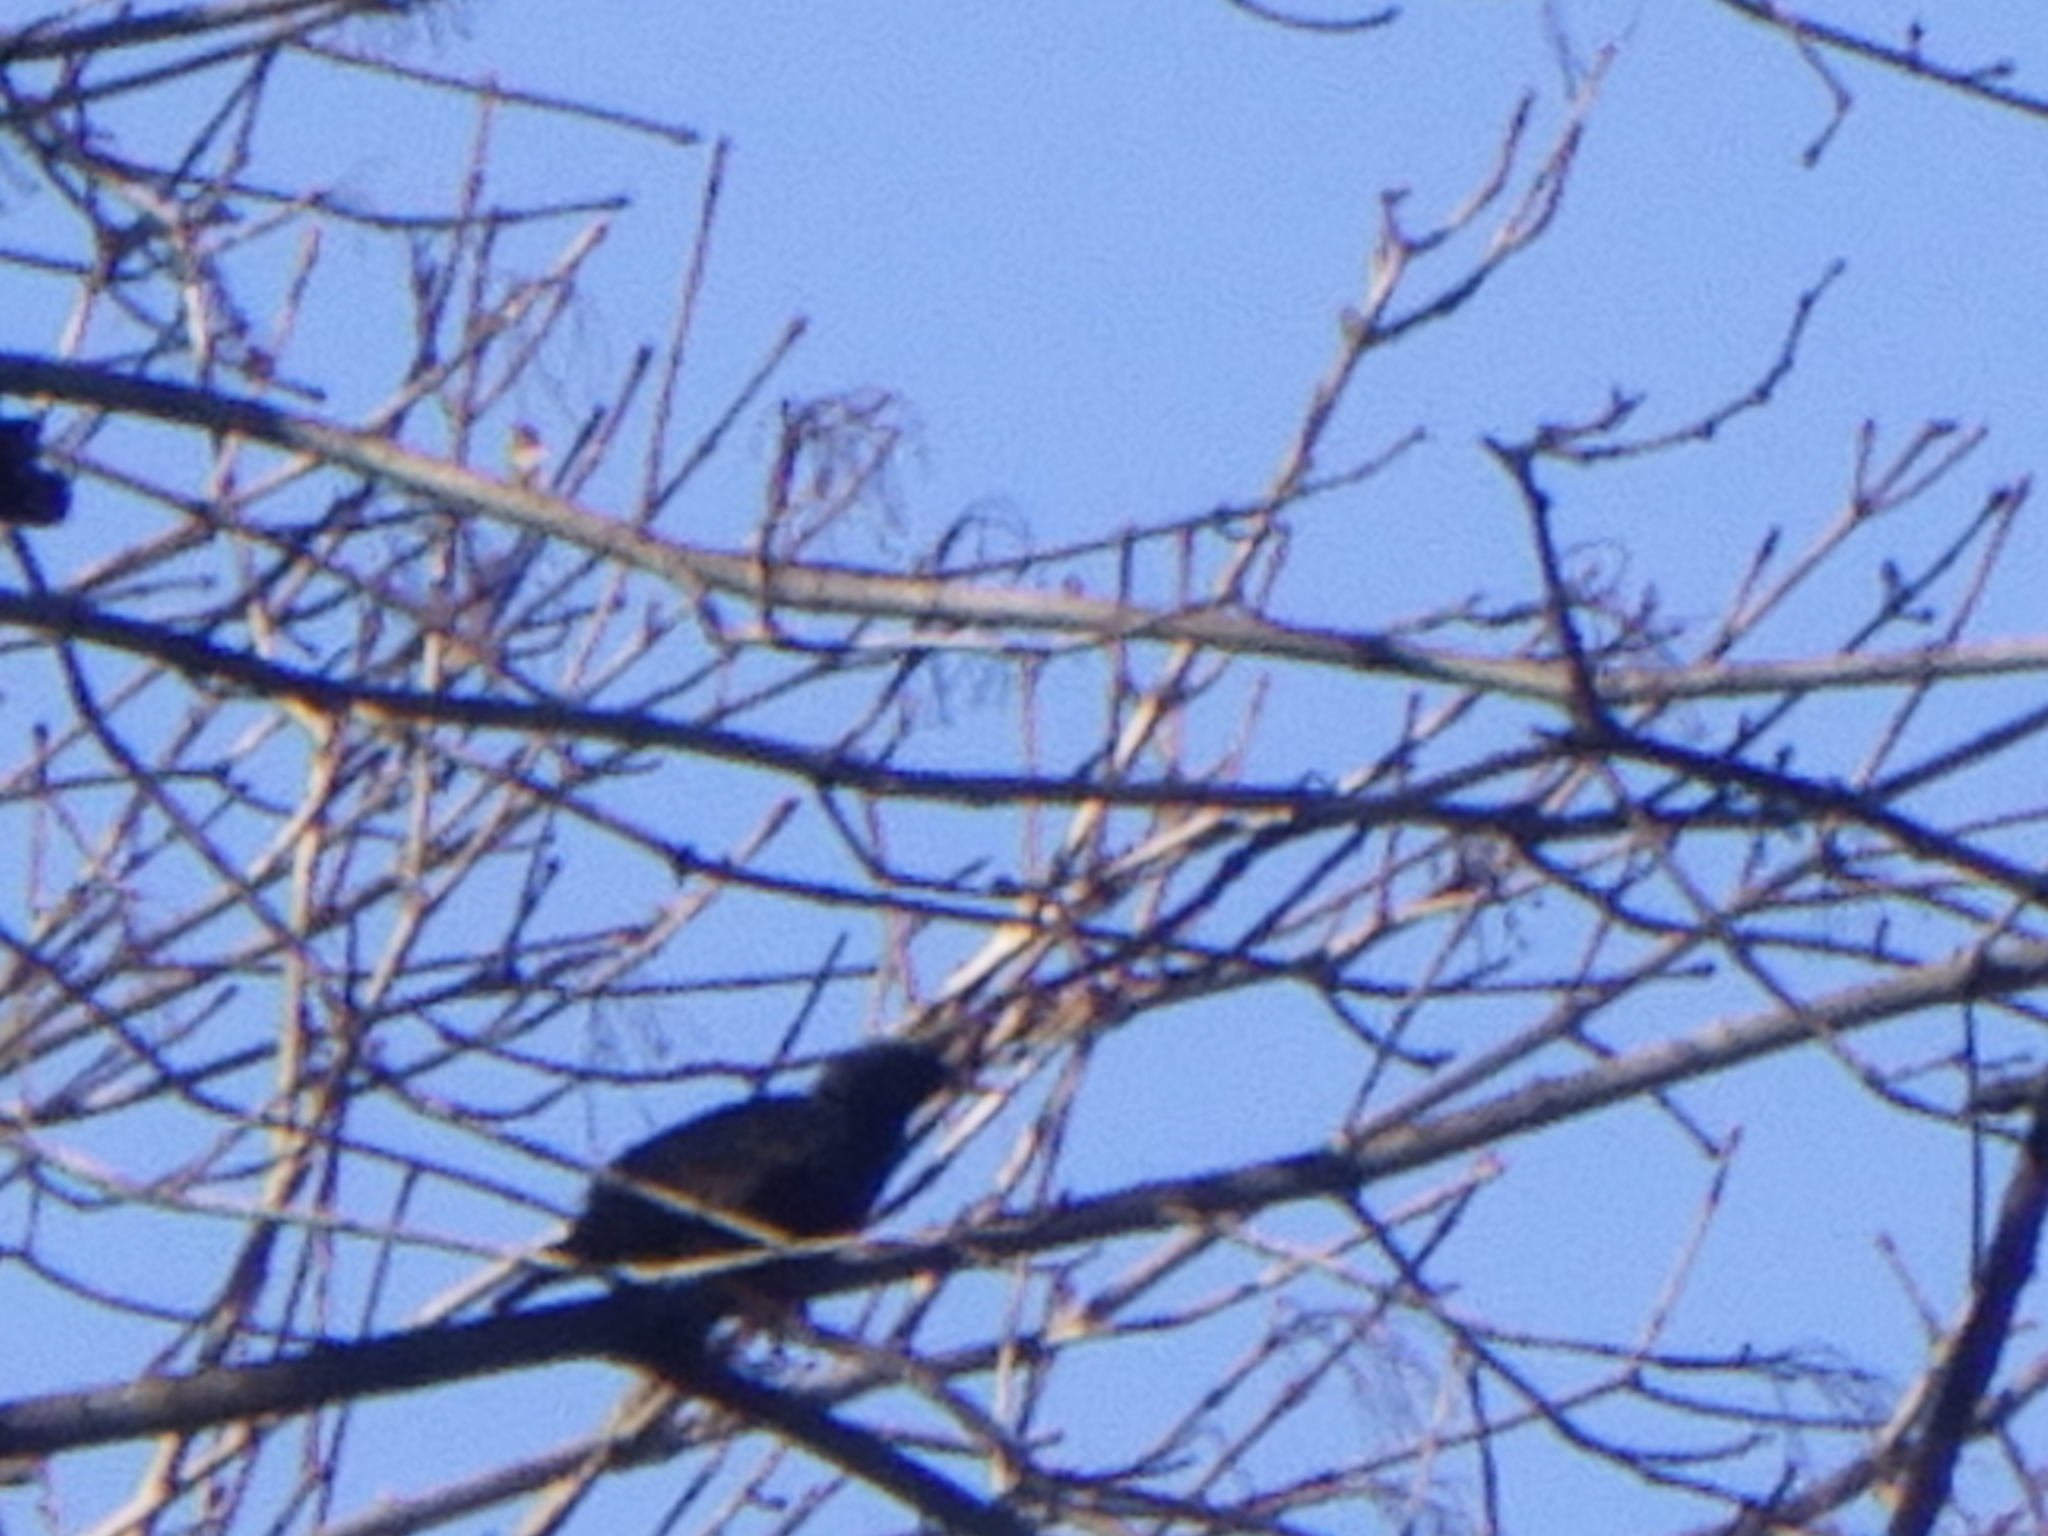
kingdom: Animalia
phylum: Chordata
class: Aves
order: Passeriformes
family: Sturnidae
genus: Sturnus
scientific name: Sturnus vulgaris
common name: Common starling
